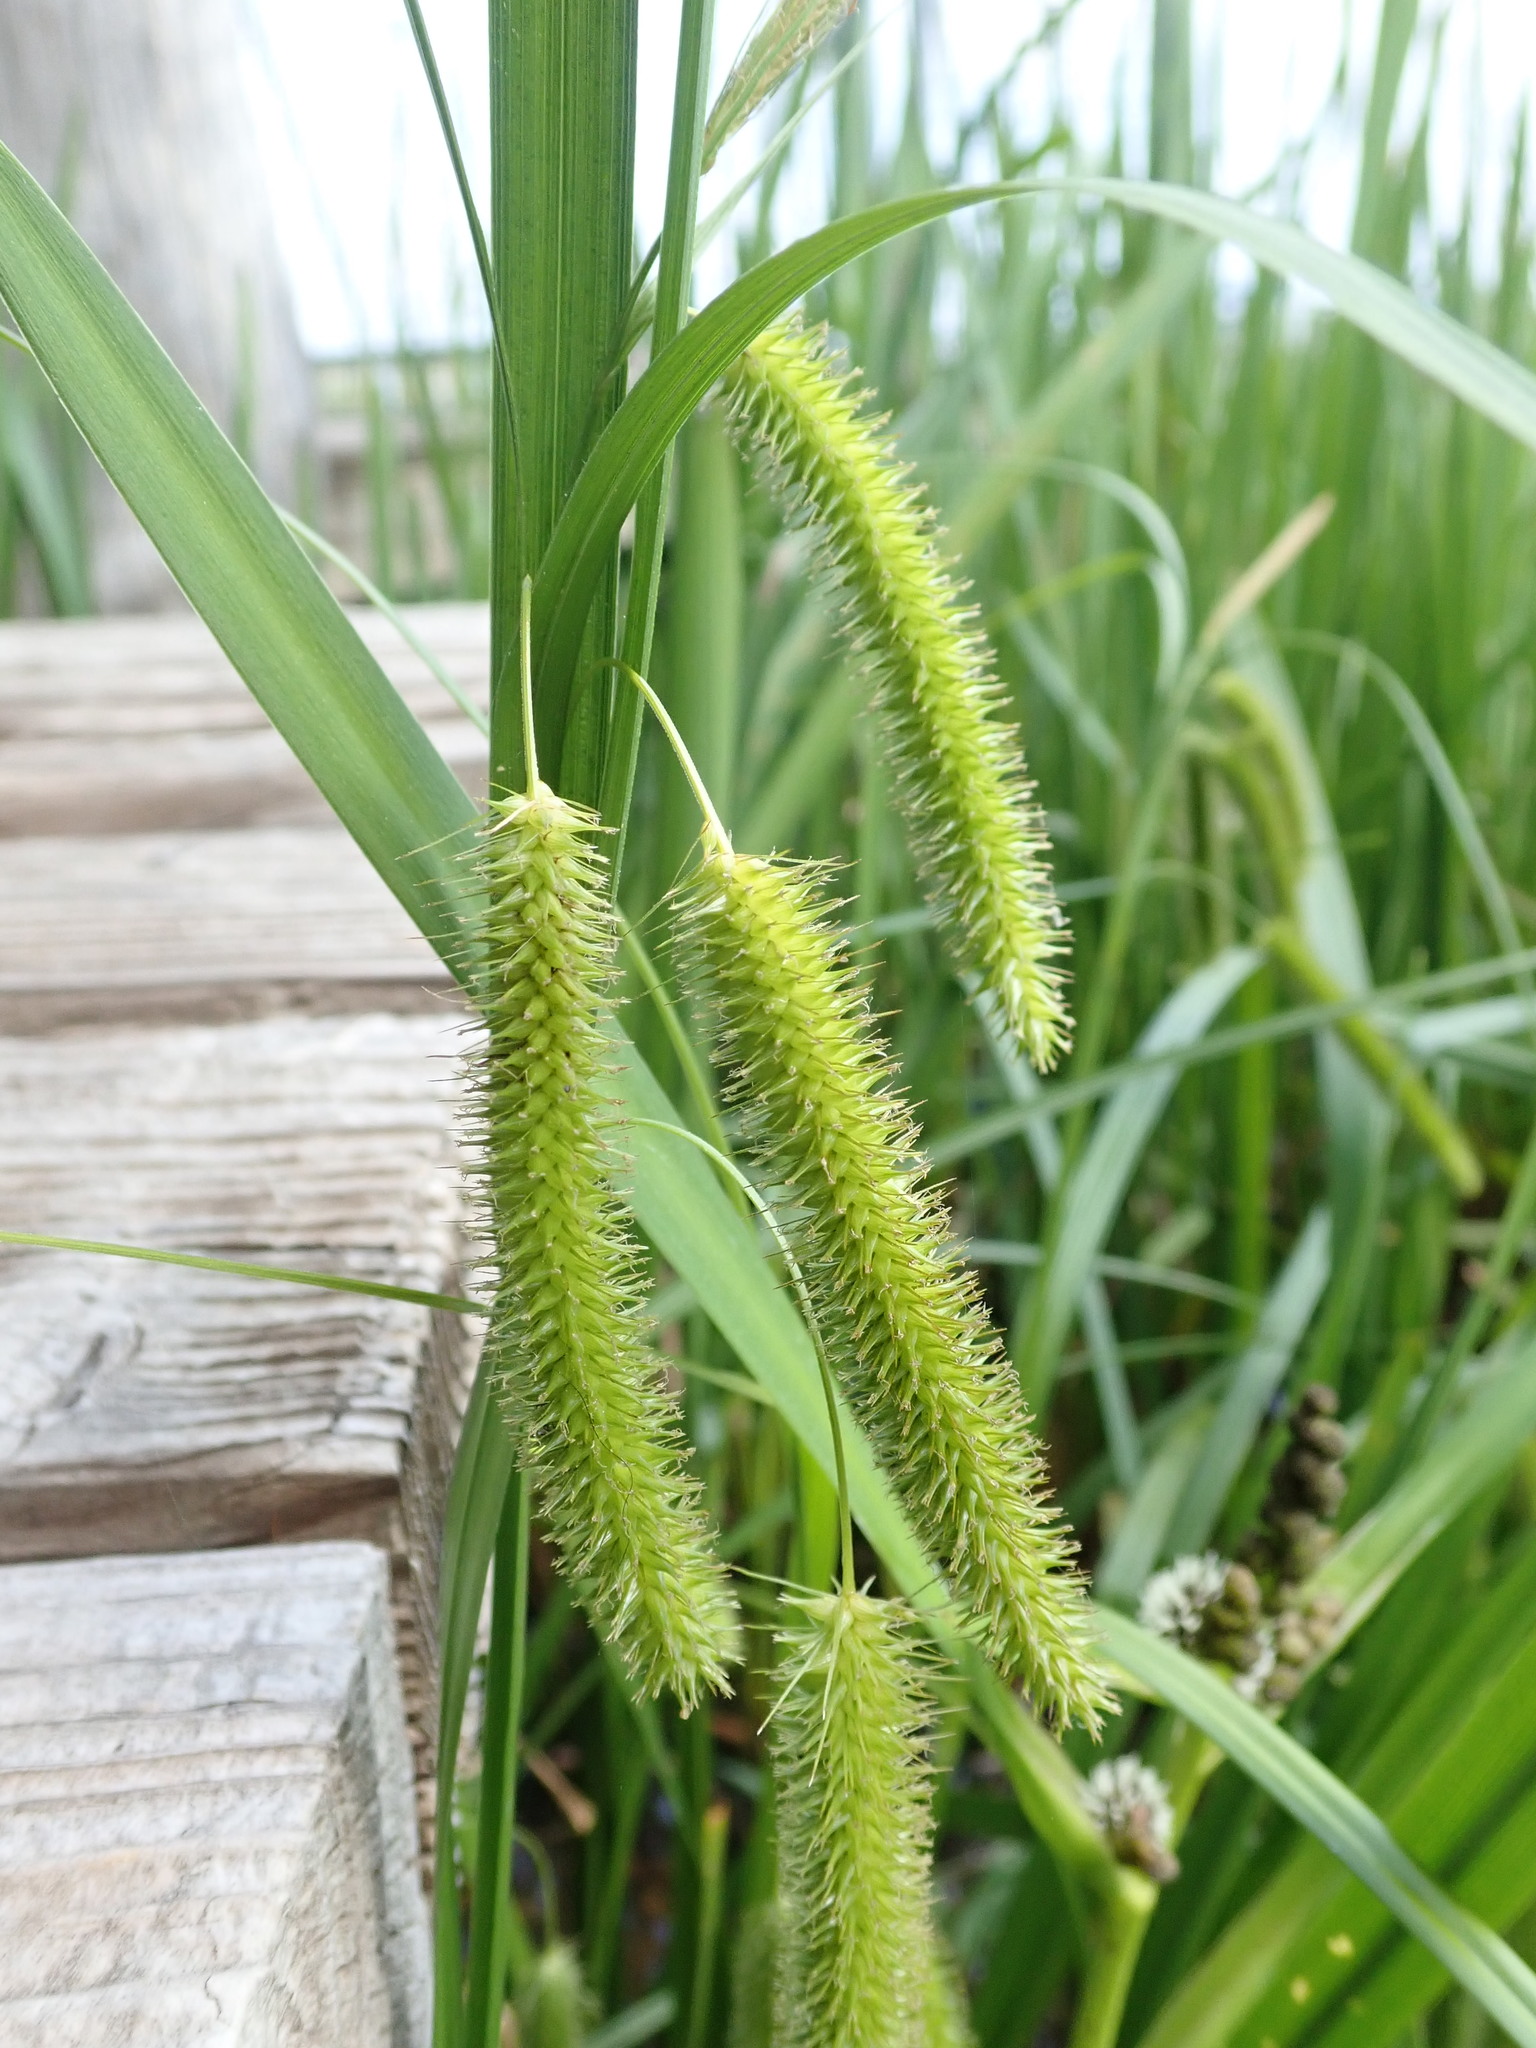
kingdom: Plantae
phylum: Tracheophyta
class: Liliopsida
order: Poales
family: Cyperaceae
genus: Carex
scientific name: Carex pseudocyperus
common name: Cyperus sedge
